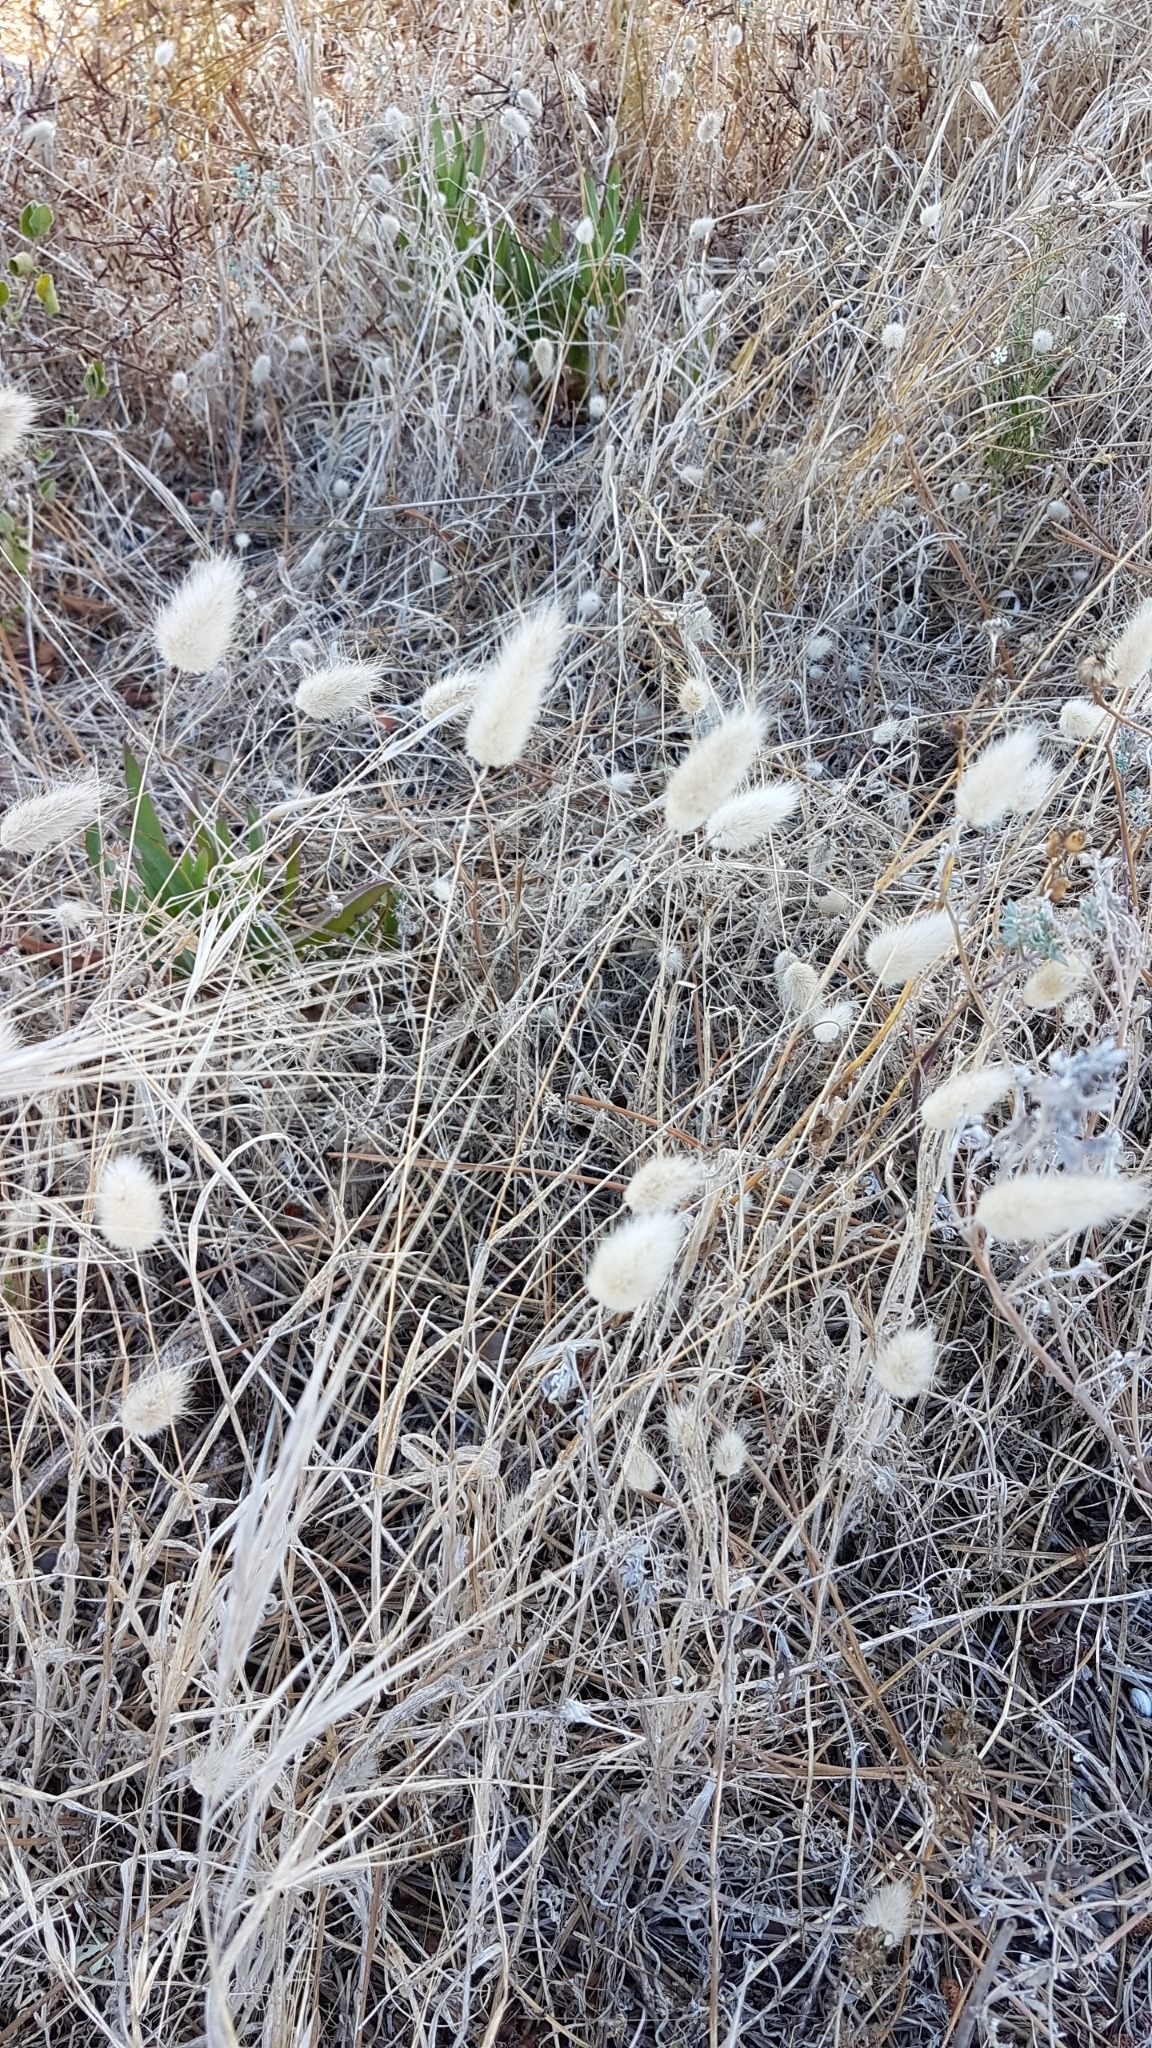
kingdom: Plantae
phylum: Tracheophyta
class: Liliopsida
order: Poales
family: Poaceae
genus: Lagurus
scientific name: Lagurus ovatus
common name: Hare's-tail
